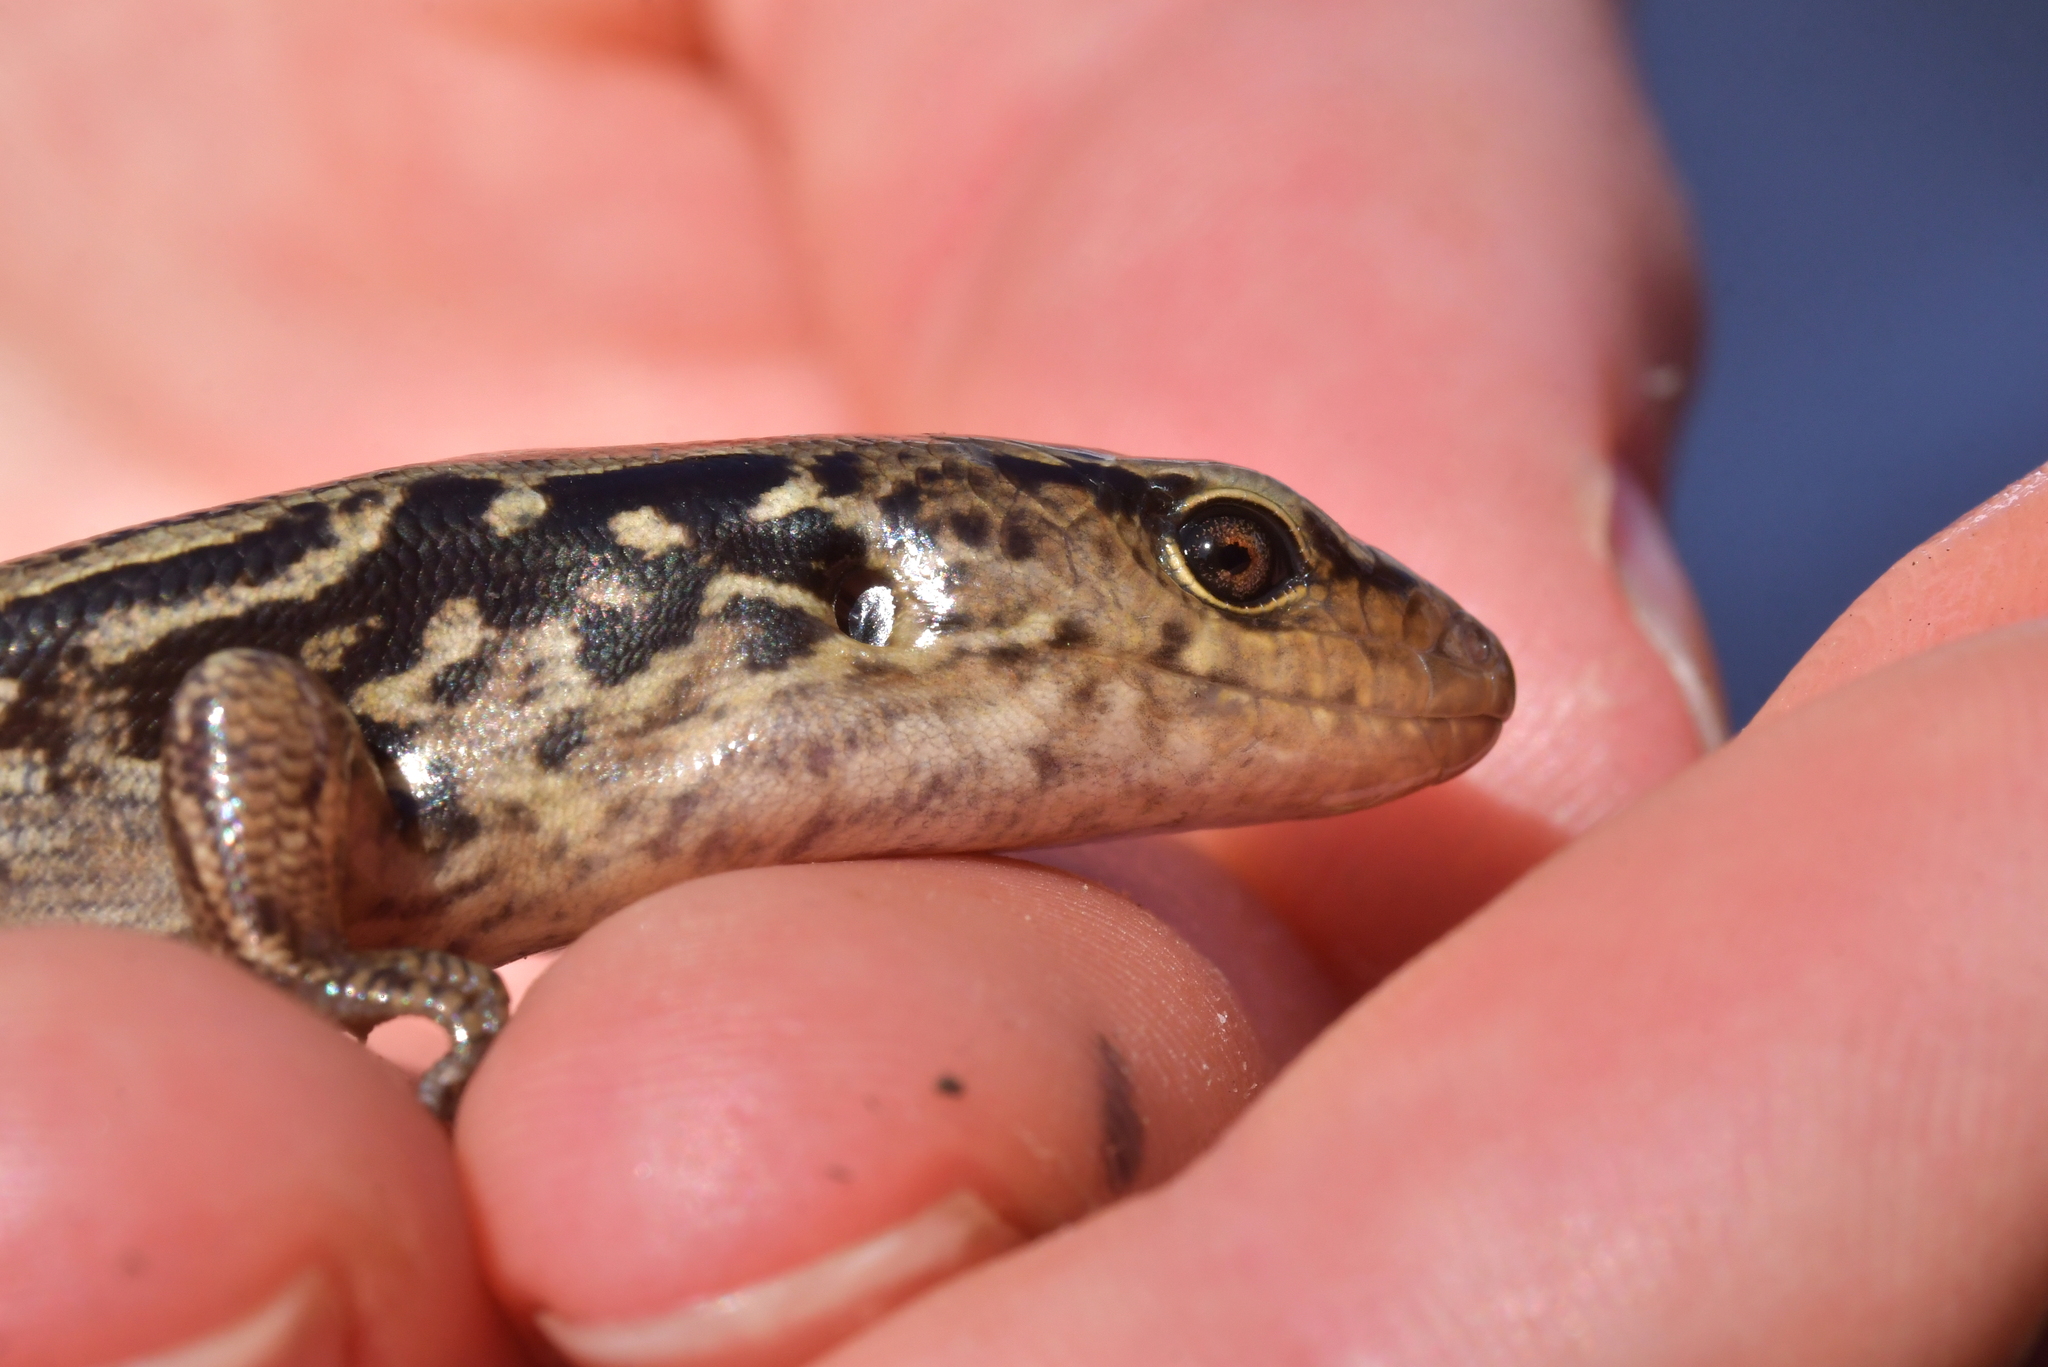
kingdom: Animalia
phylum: Chordata
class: Squamata
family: Scincidae
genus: Oligosoma
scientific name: Oligosoma macgregori
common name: Macgregor's skink
